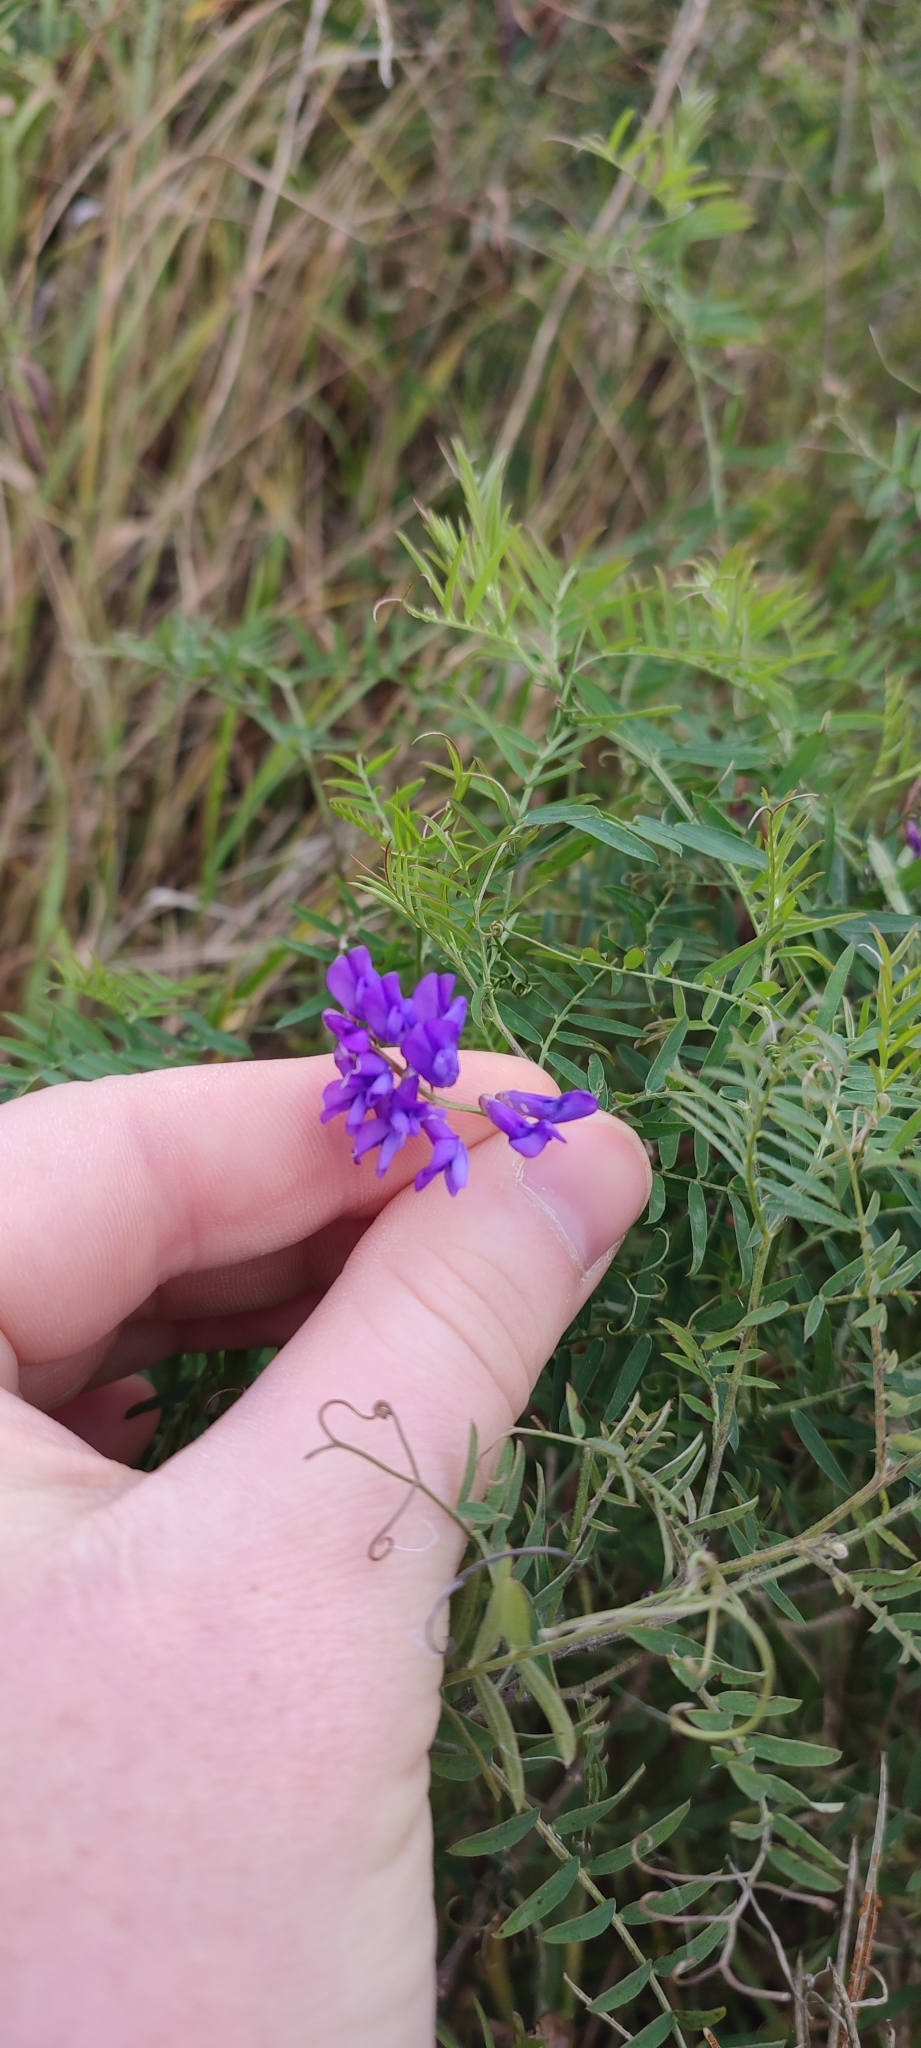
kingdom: Plantae
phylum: Tracheophyta
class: Magnoliopsida
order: Fabales
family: Fabaceae
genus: Vicia
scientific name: Vicia cracca
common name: Bird vetch
